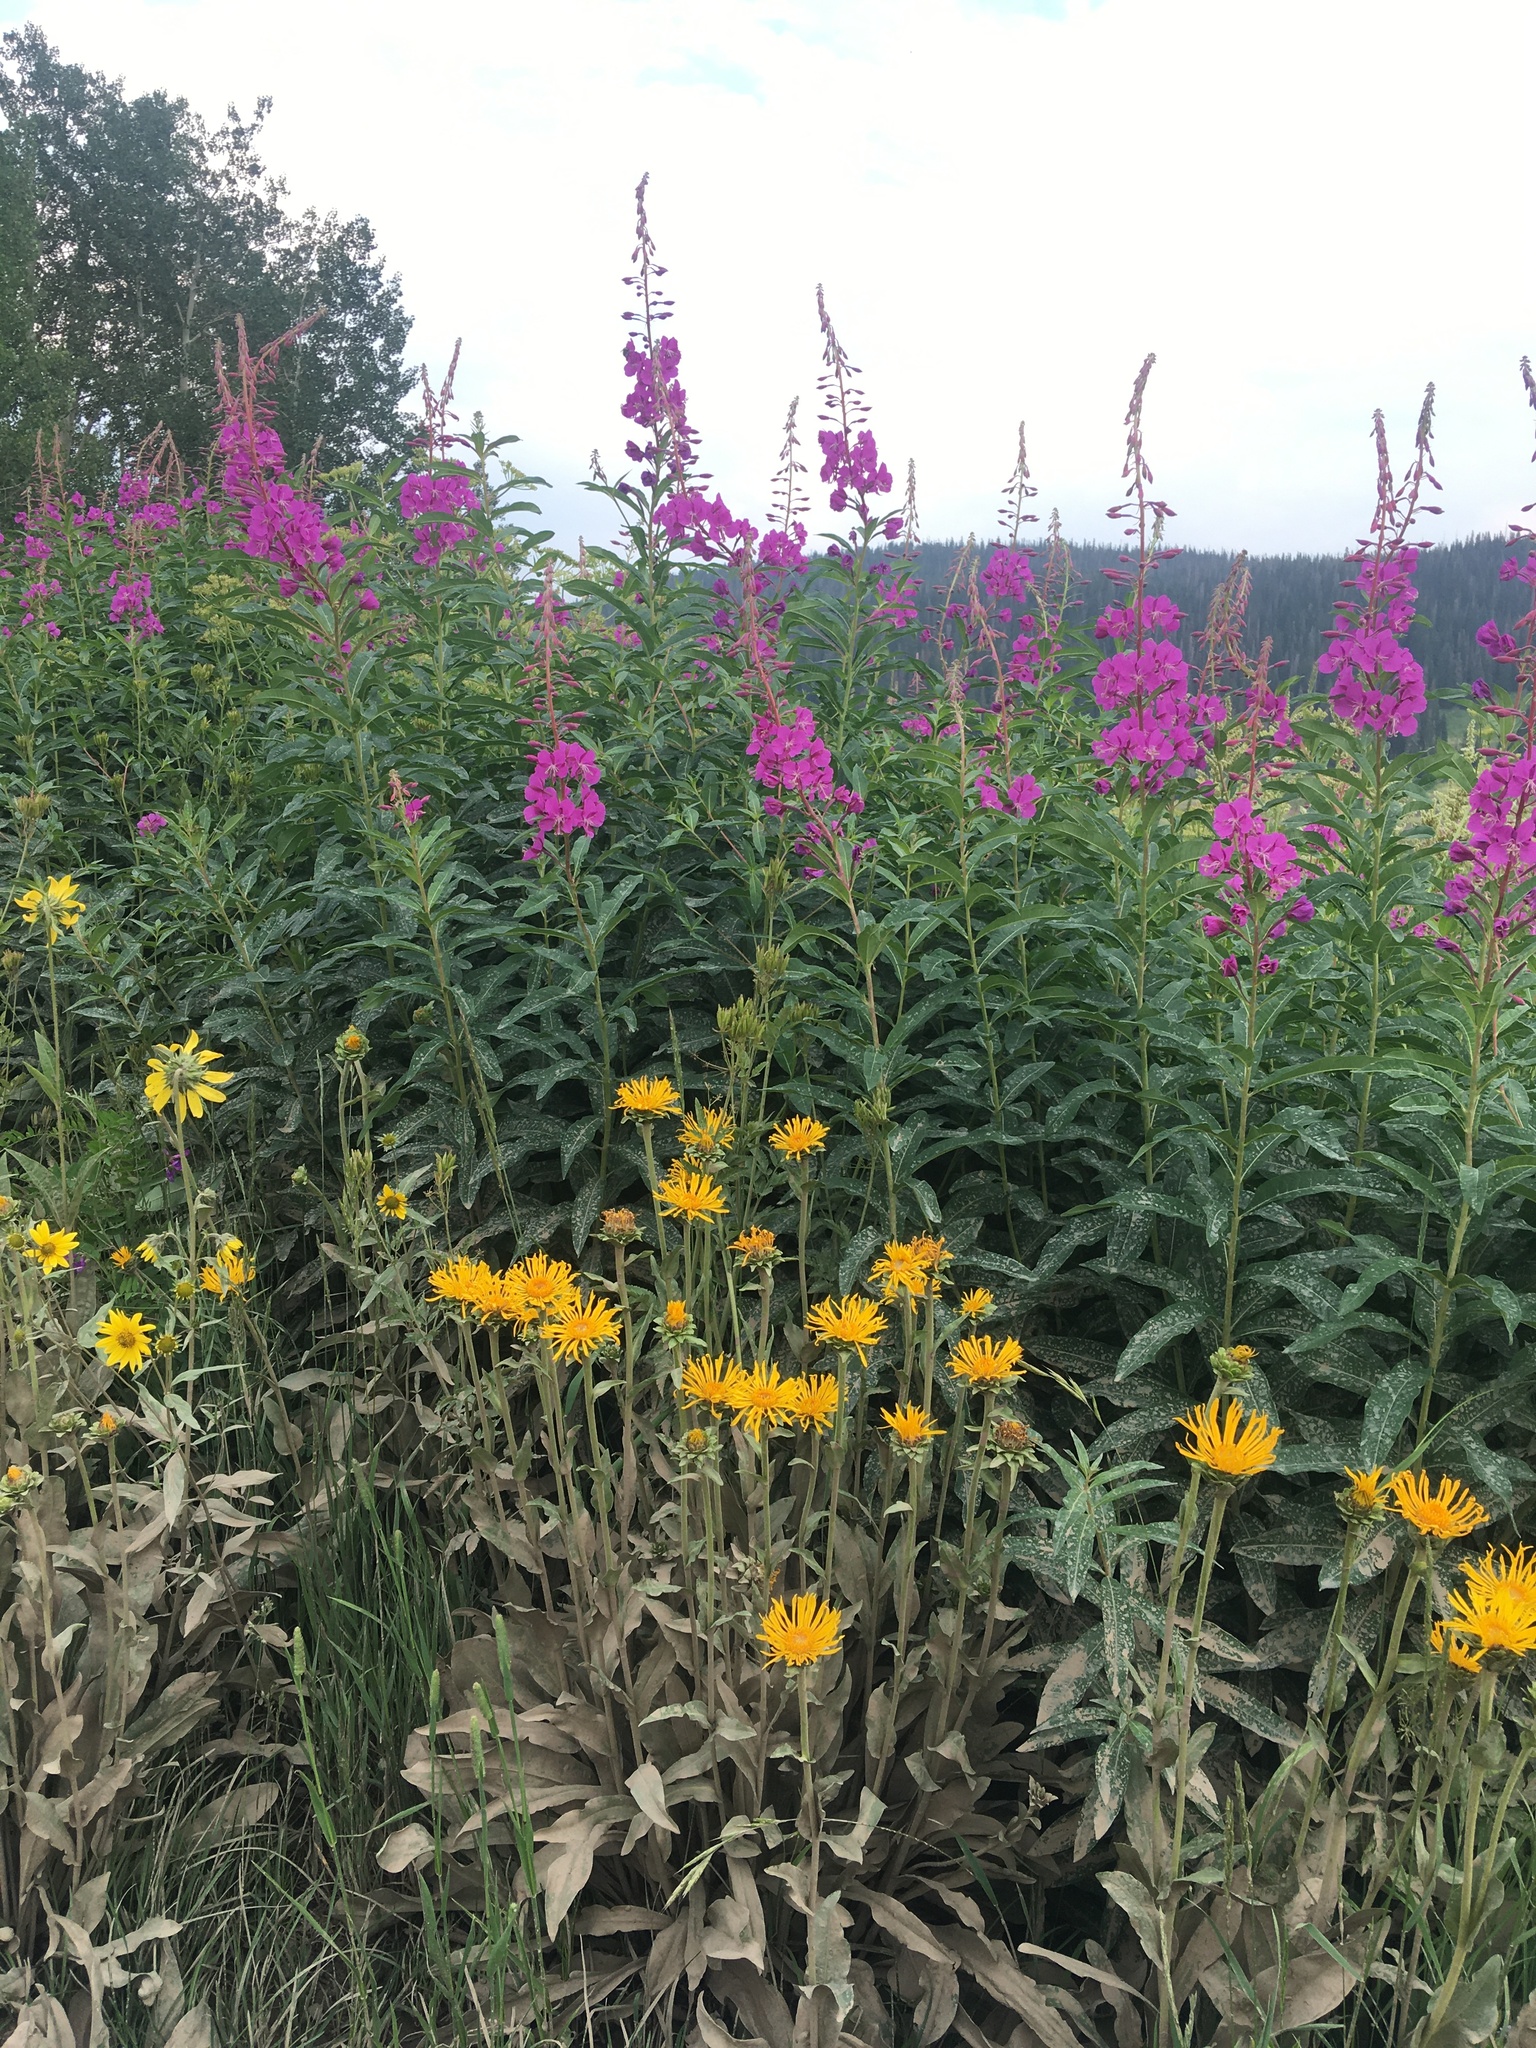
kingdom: Plantae
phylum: Tracheophyta
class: Magnoliopsida
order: Myrtales
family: Onagraceae
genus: Chamaenerion
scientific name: Chamaenerion angustifolium
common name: Fireweed
